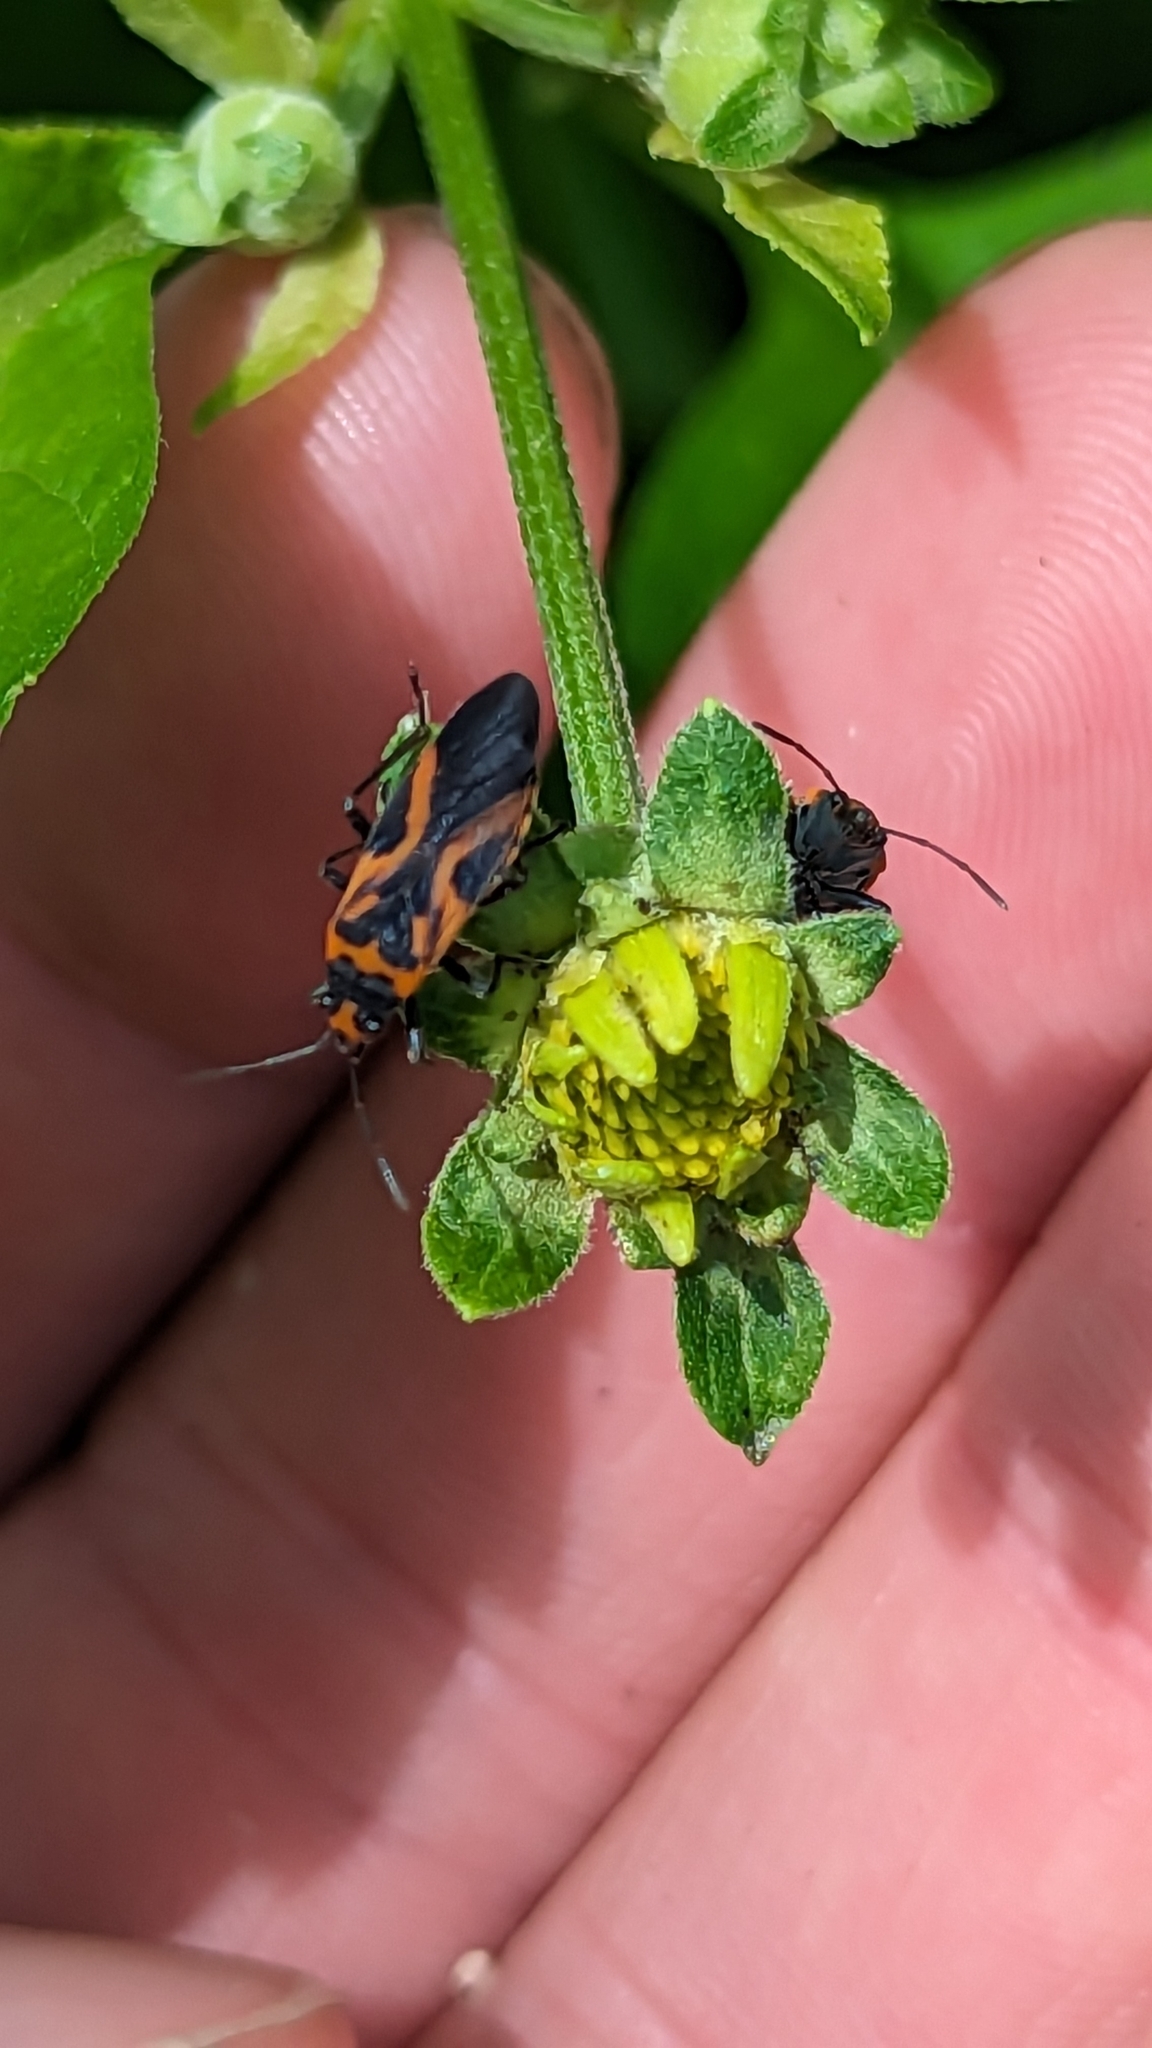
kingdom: Animalia
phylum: Arthropoda
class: Insecta
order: Hemiptera
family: Lygaeidae
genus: Lygaeus
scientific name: Lygaeus turcicus
